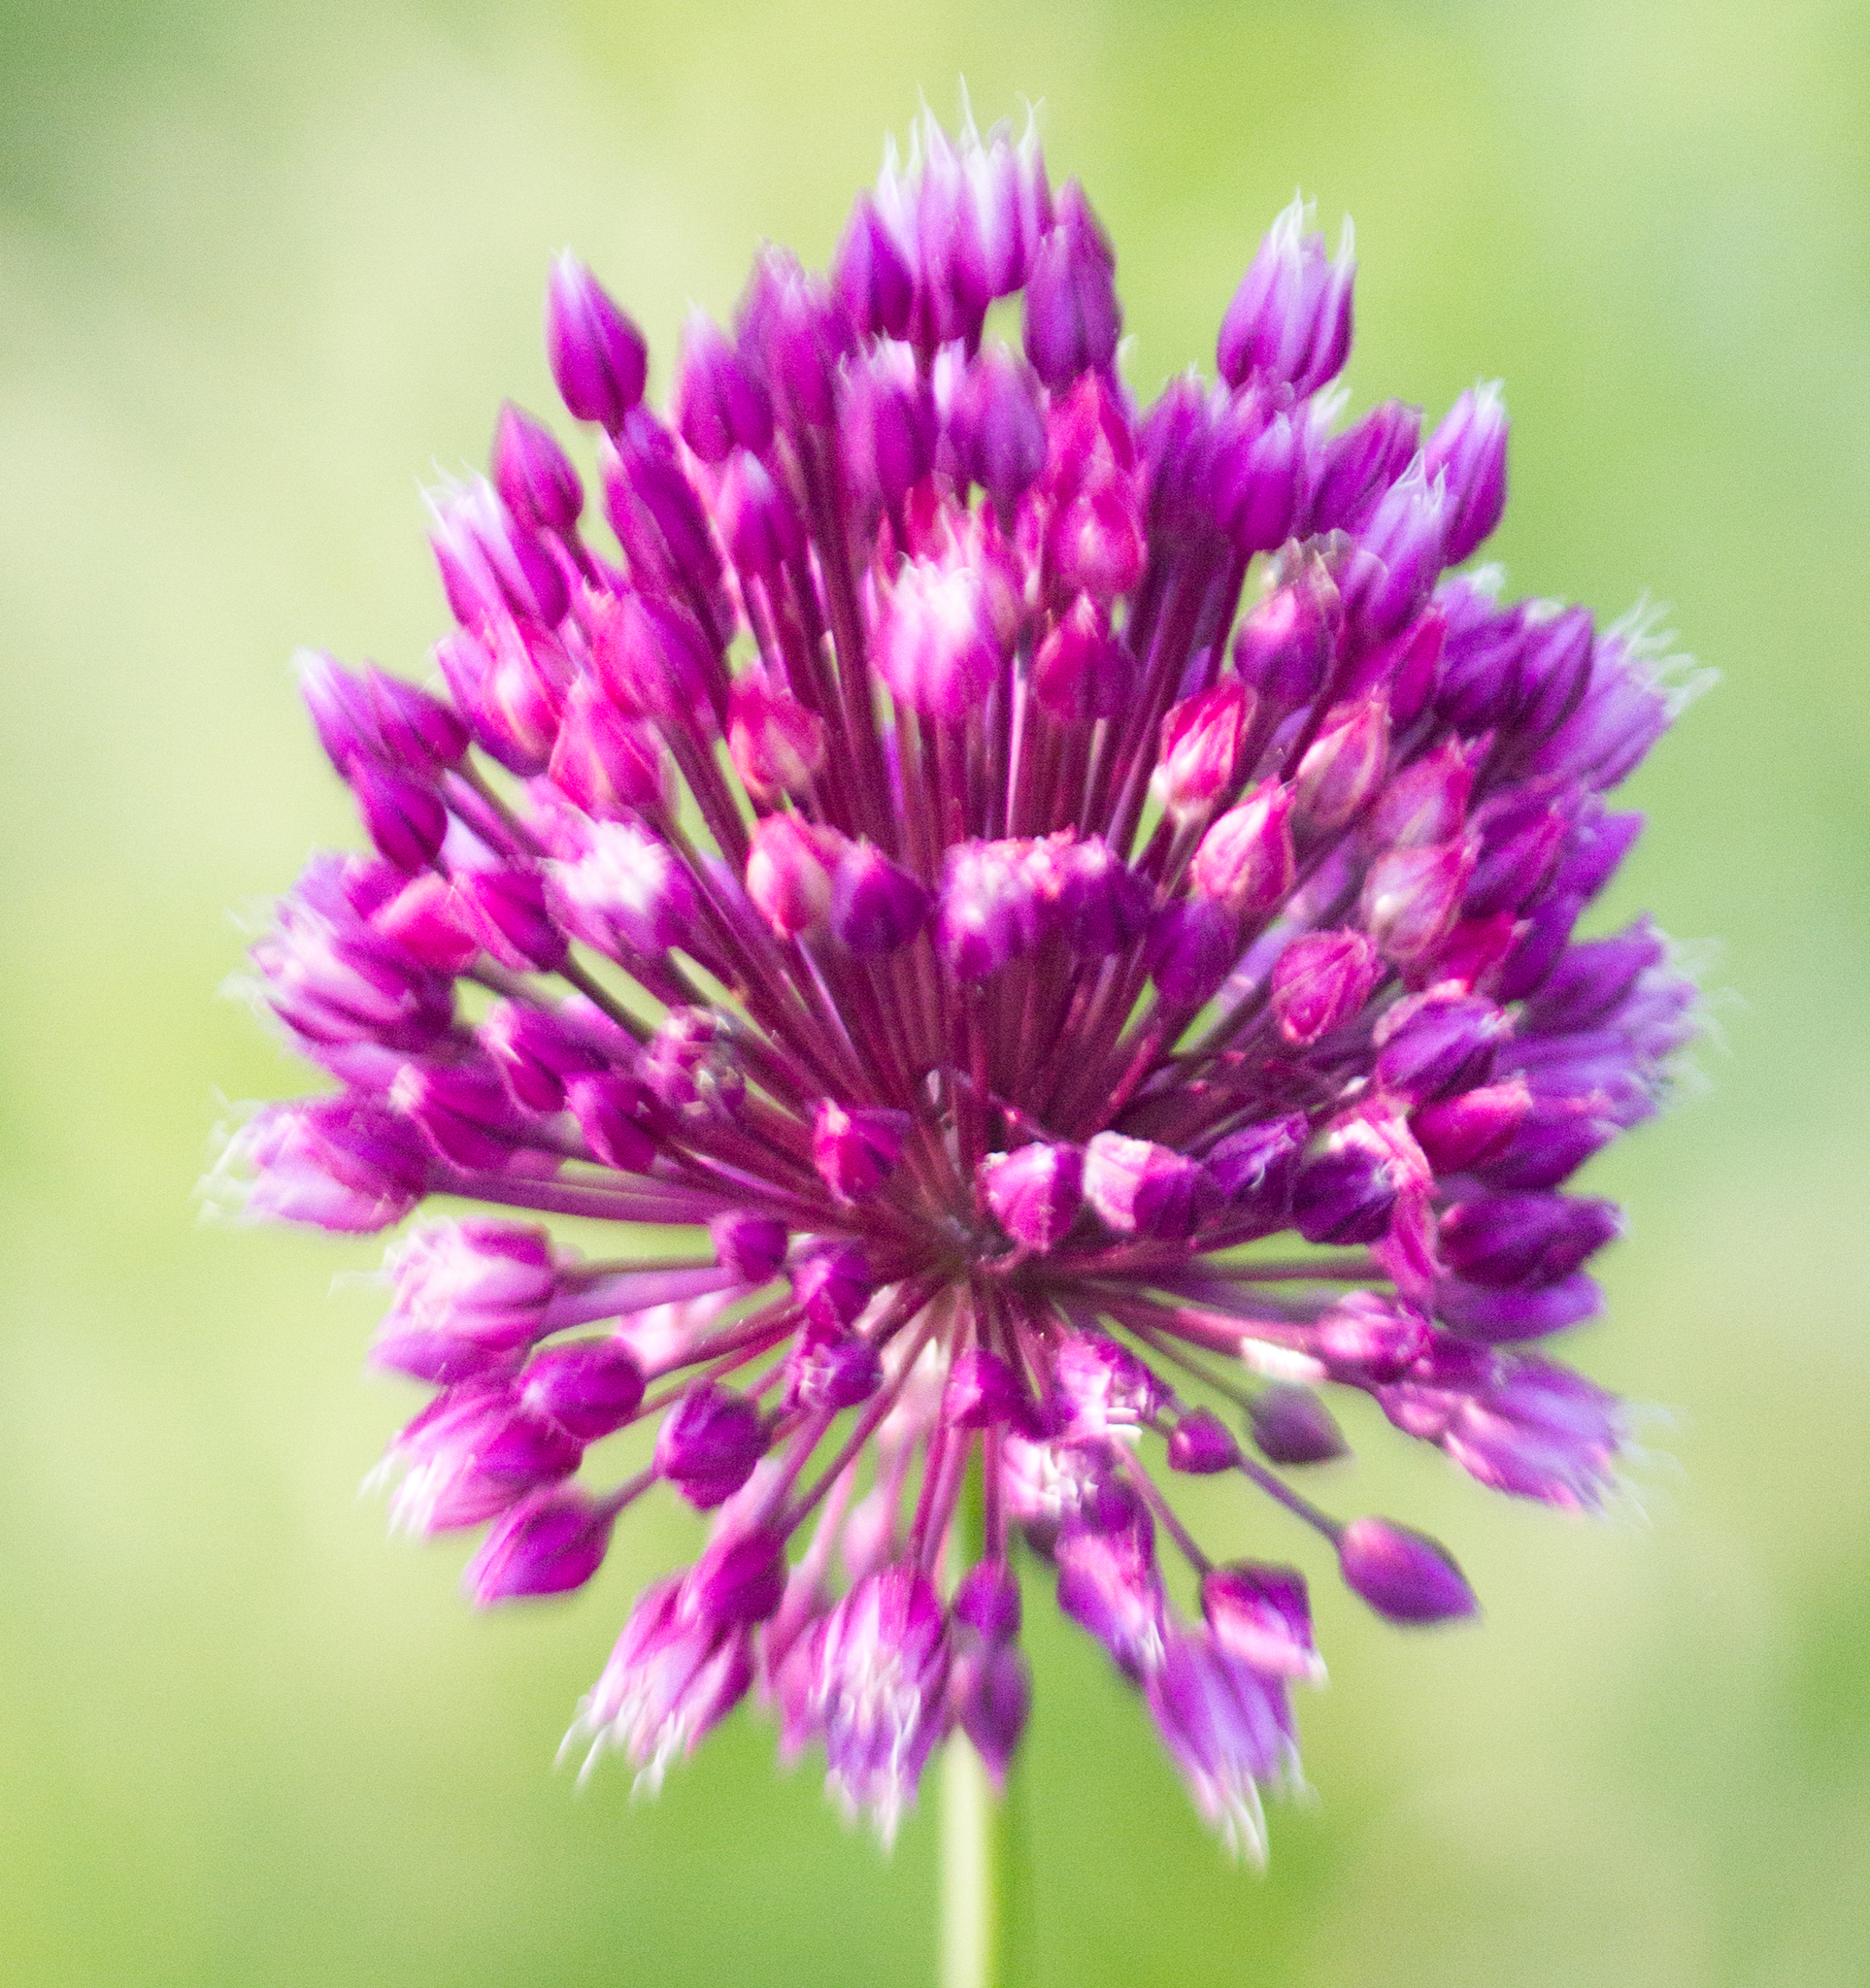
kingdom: Plantae
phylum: Tracheophyta
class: Liliopsida
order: Asparagales
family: Amaryllidaceae
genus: Allium
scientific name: Allium rotundum
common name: Sand leek
